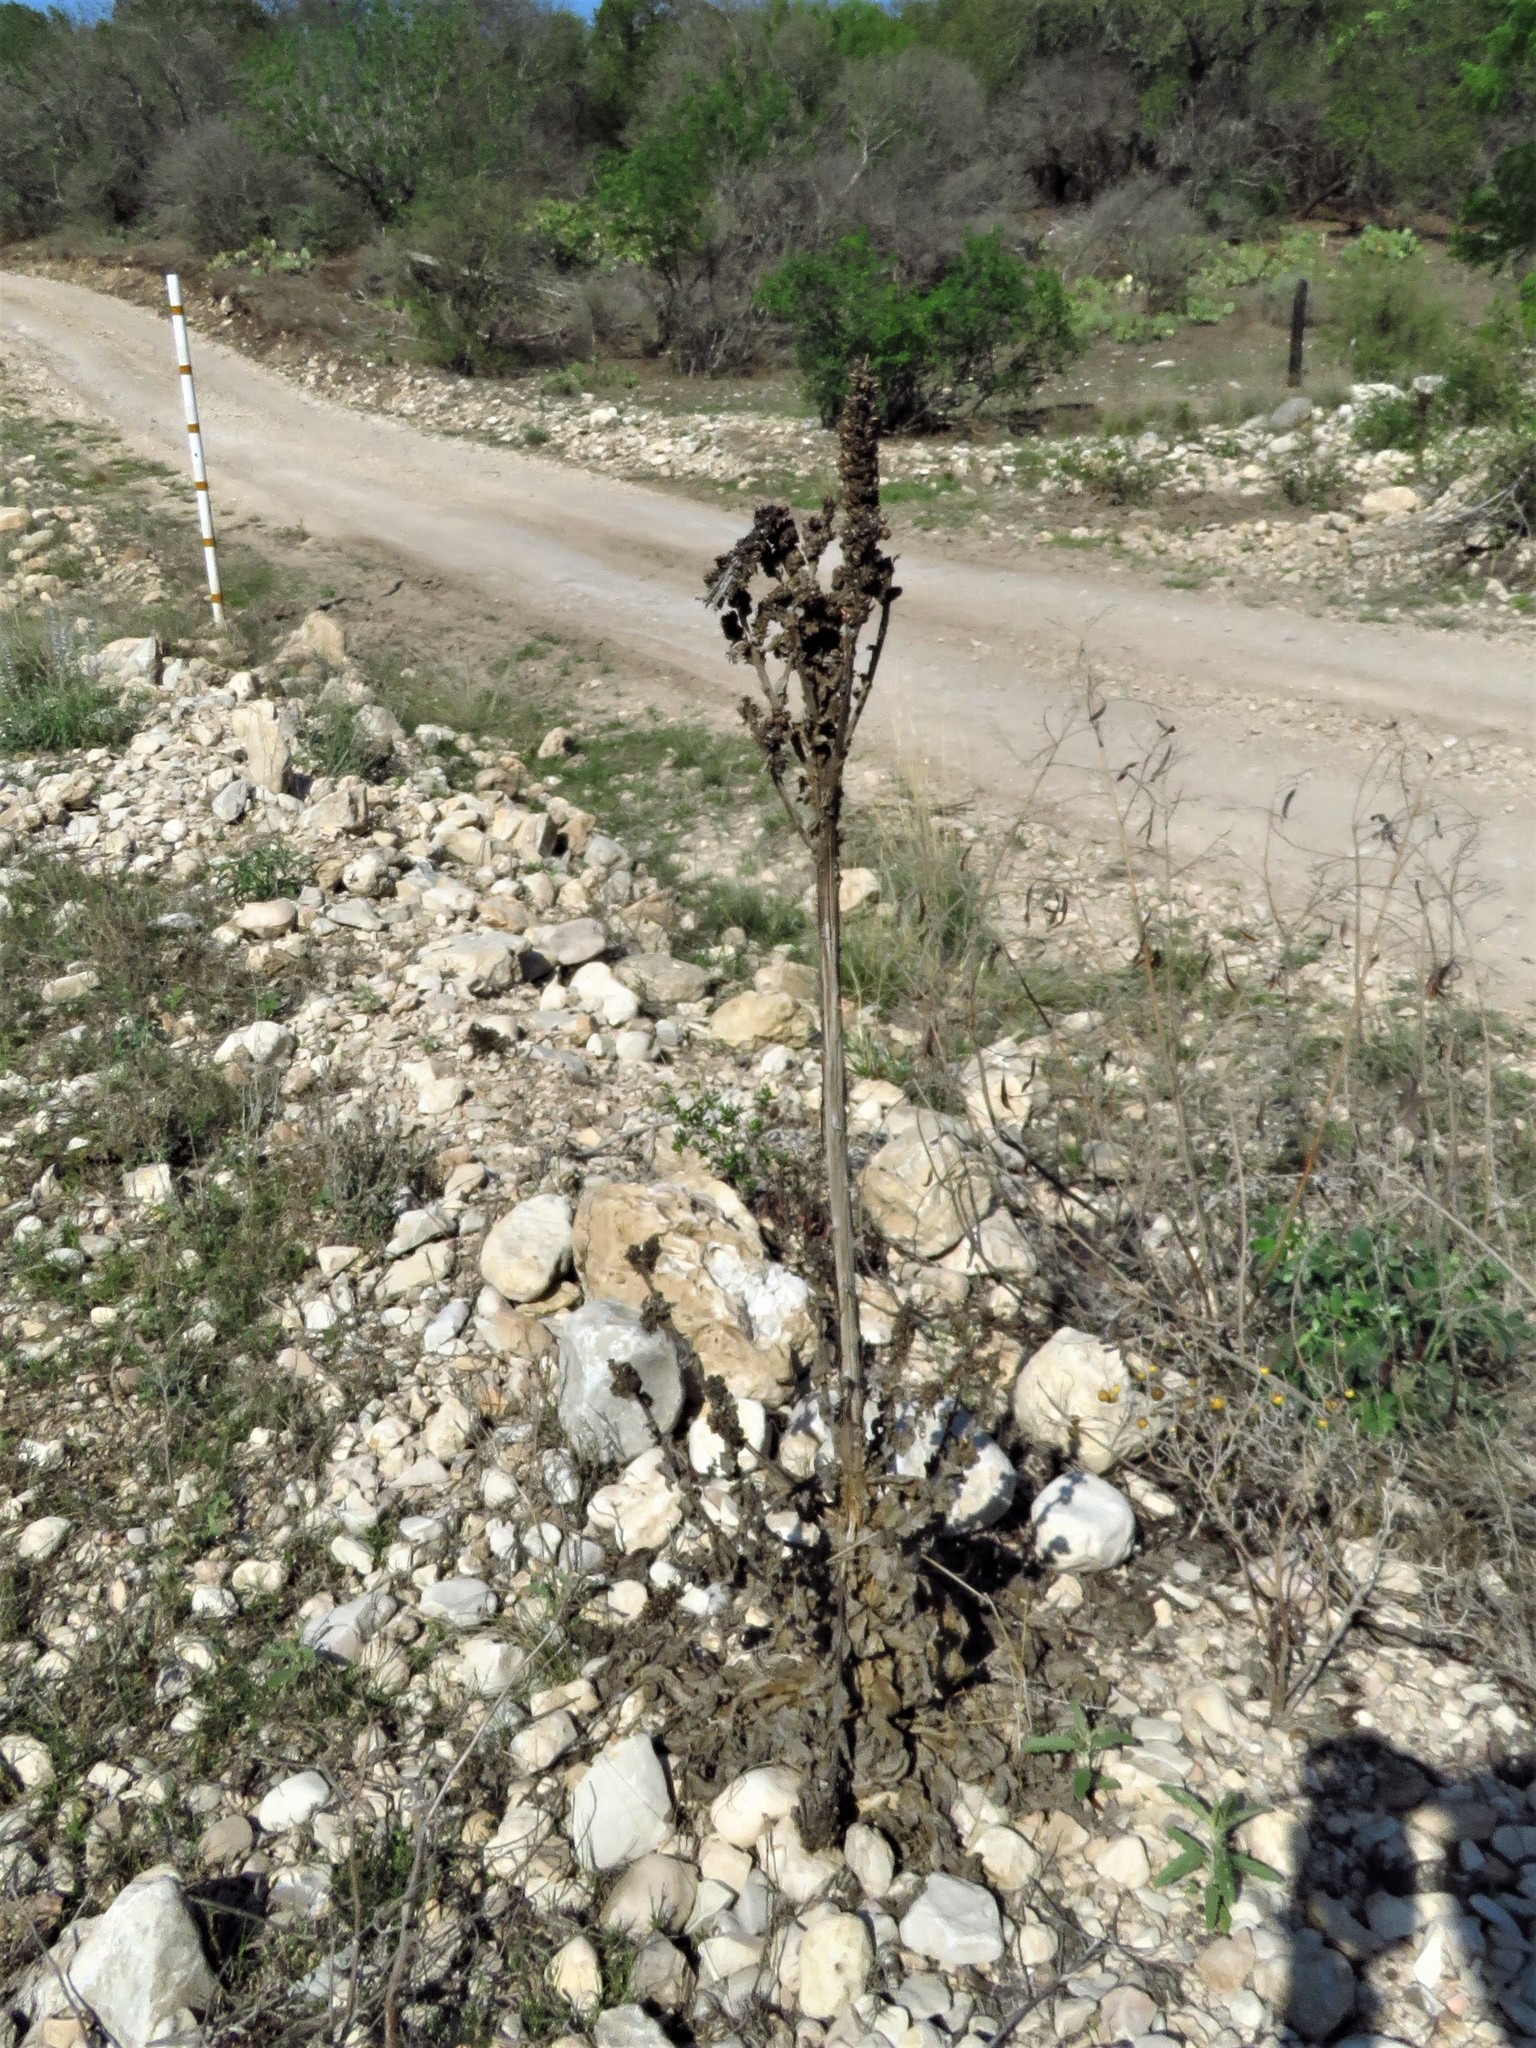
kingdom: Plantae
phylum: Tracheophyta
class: Magnoliopsida
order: Lamiales
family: Scrophulariaceae
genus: Verbascum
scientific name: Verbascum thapsus
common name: Common mullein
